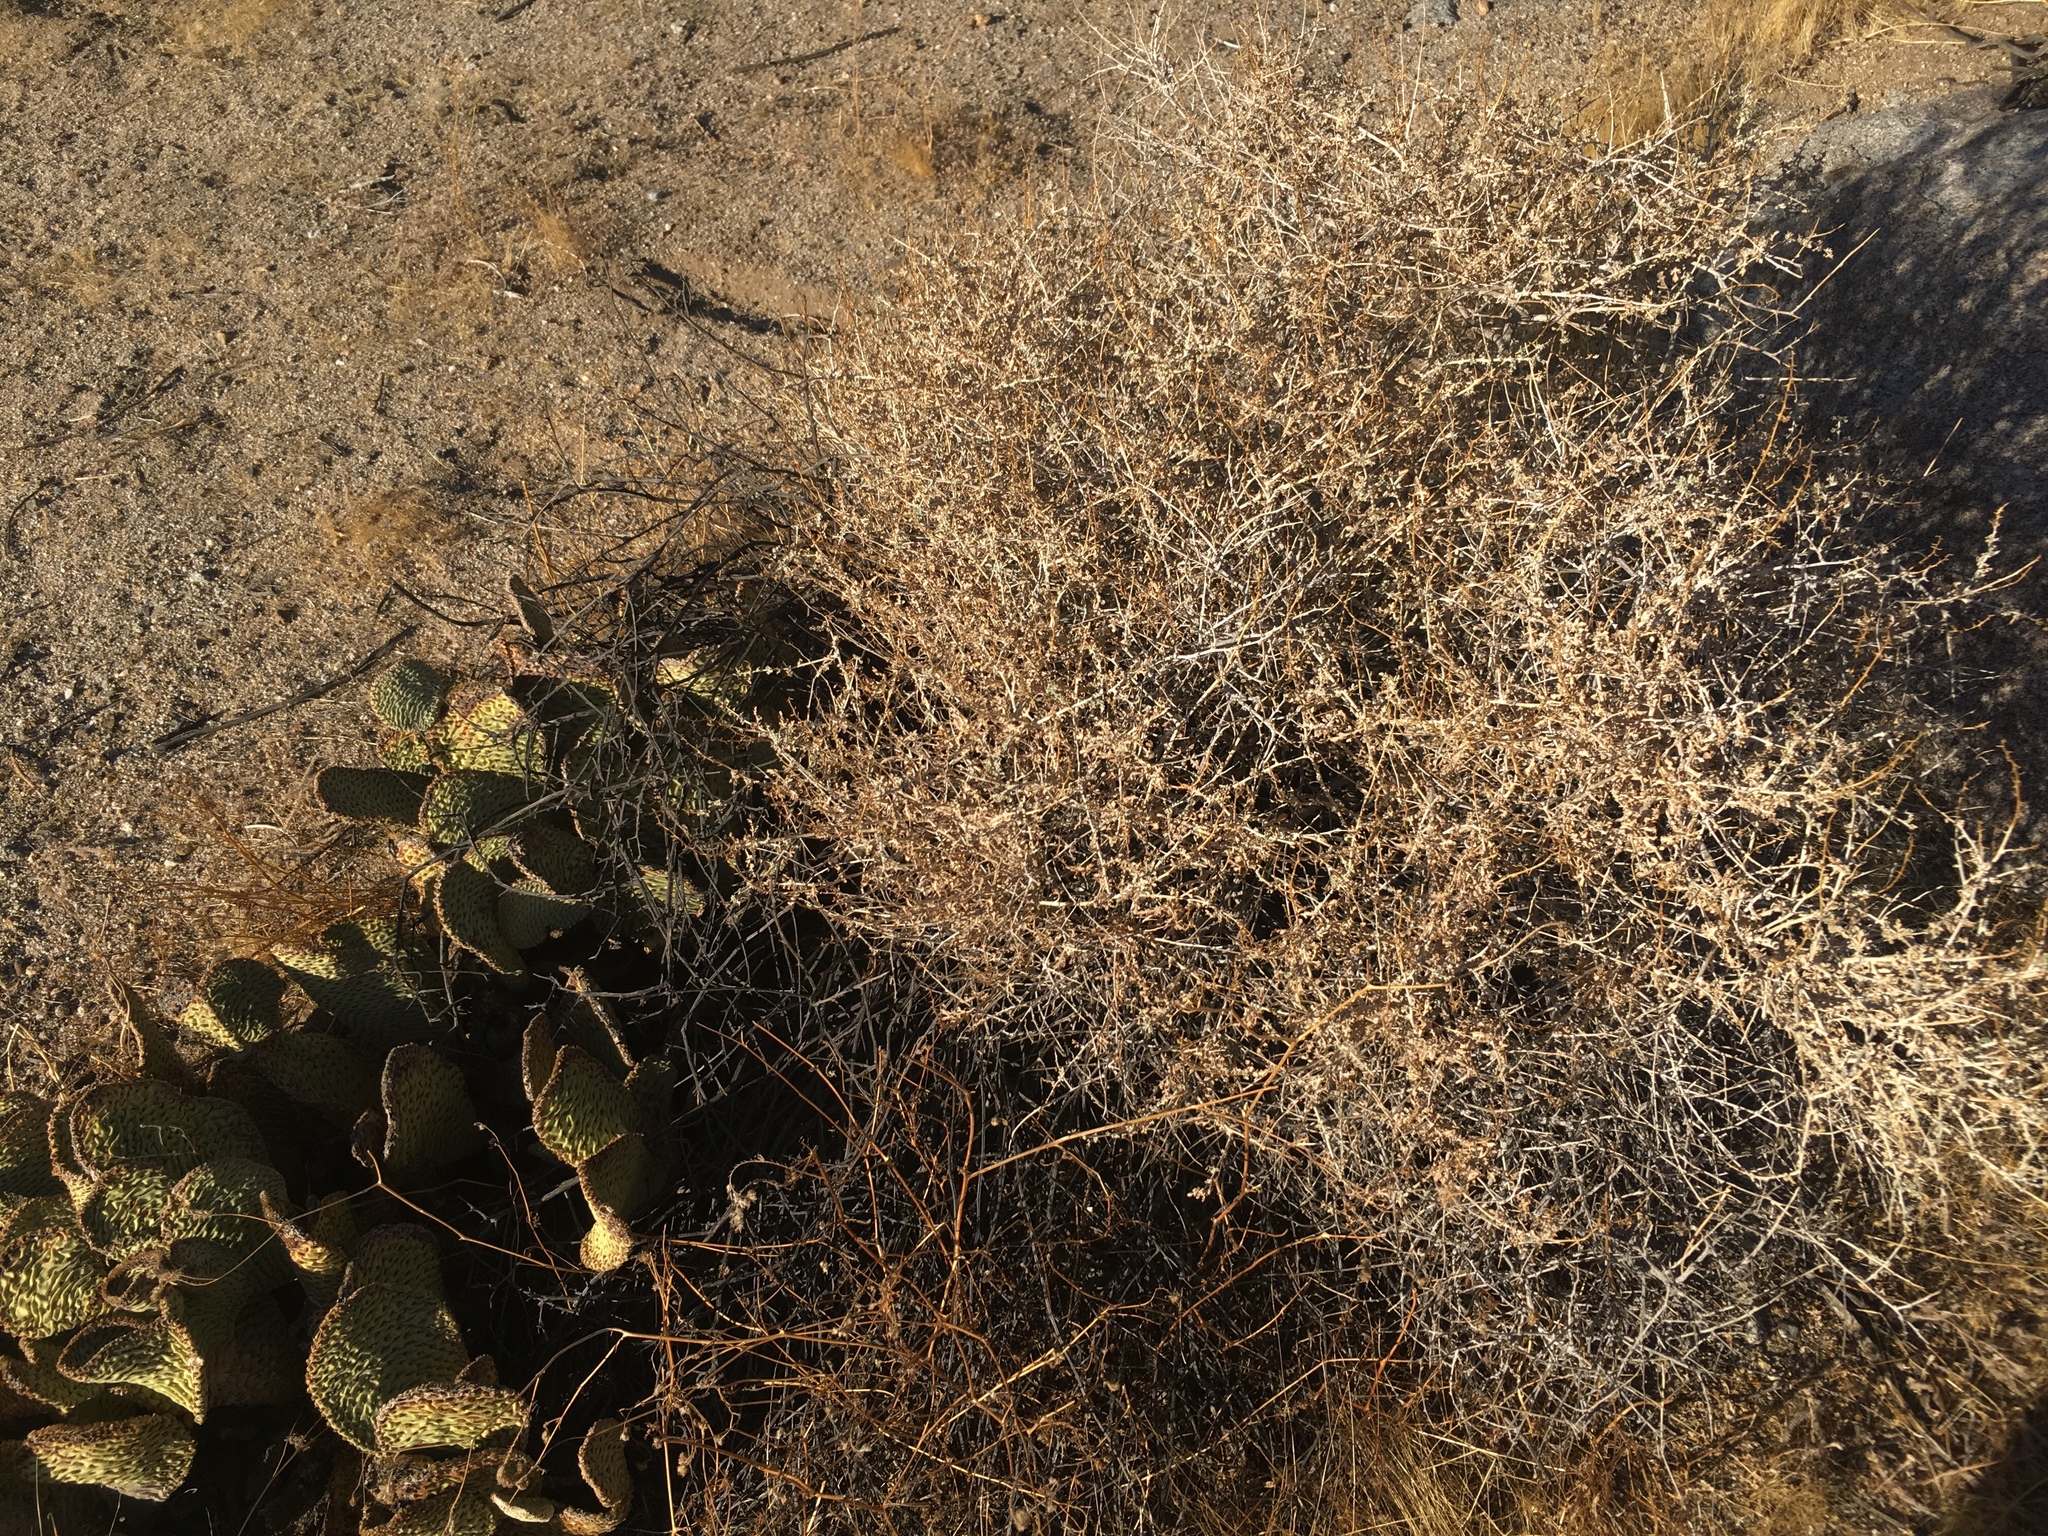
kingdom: Plantae
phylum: Tracheophyta
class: Magnoliopsida
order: Asterales
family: Asteraceae
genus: Ambrosia
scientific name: Ambrosia dumosa
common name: Bur-sage
